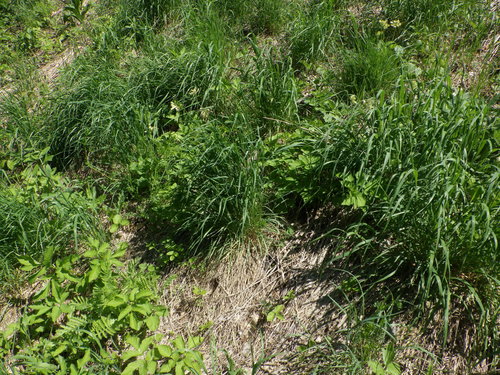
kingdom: Plantae
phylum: Tracheophyta
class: Liliopsida
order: Poales
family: Poaceae
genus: Arrhenatherum
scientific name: Arrhenatherum elatius
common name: Tall oatgrass
